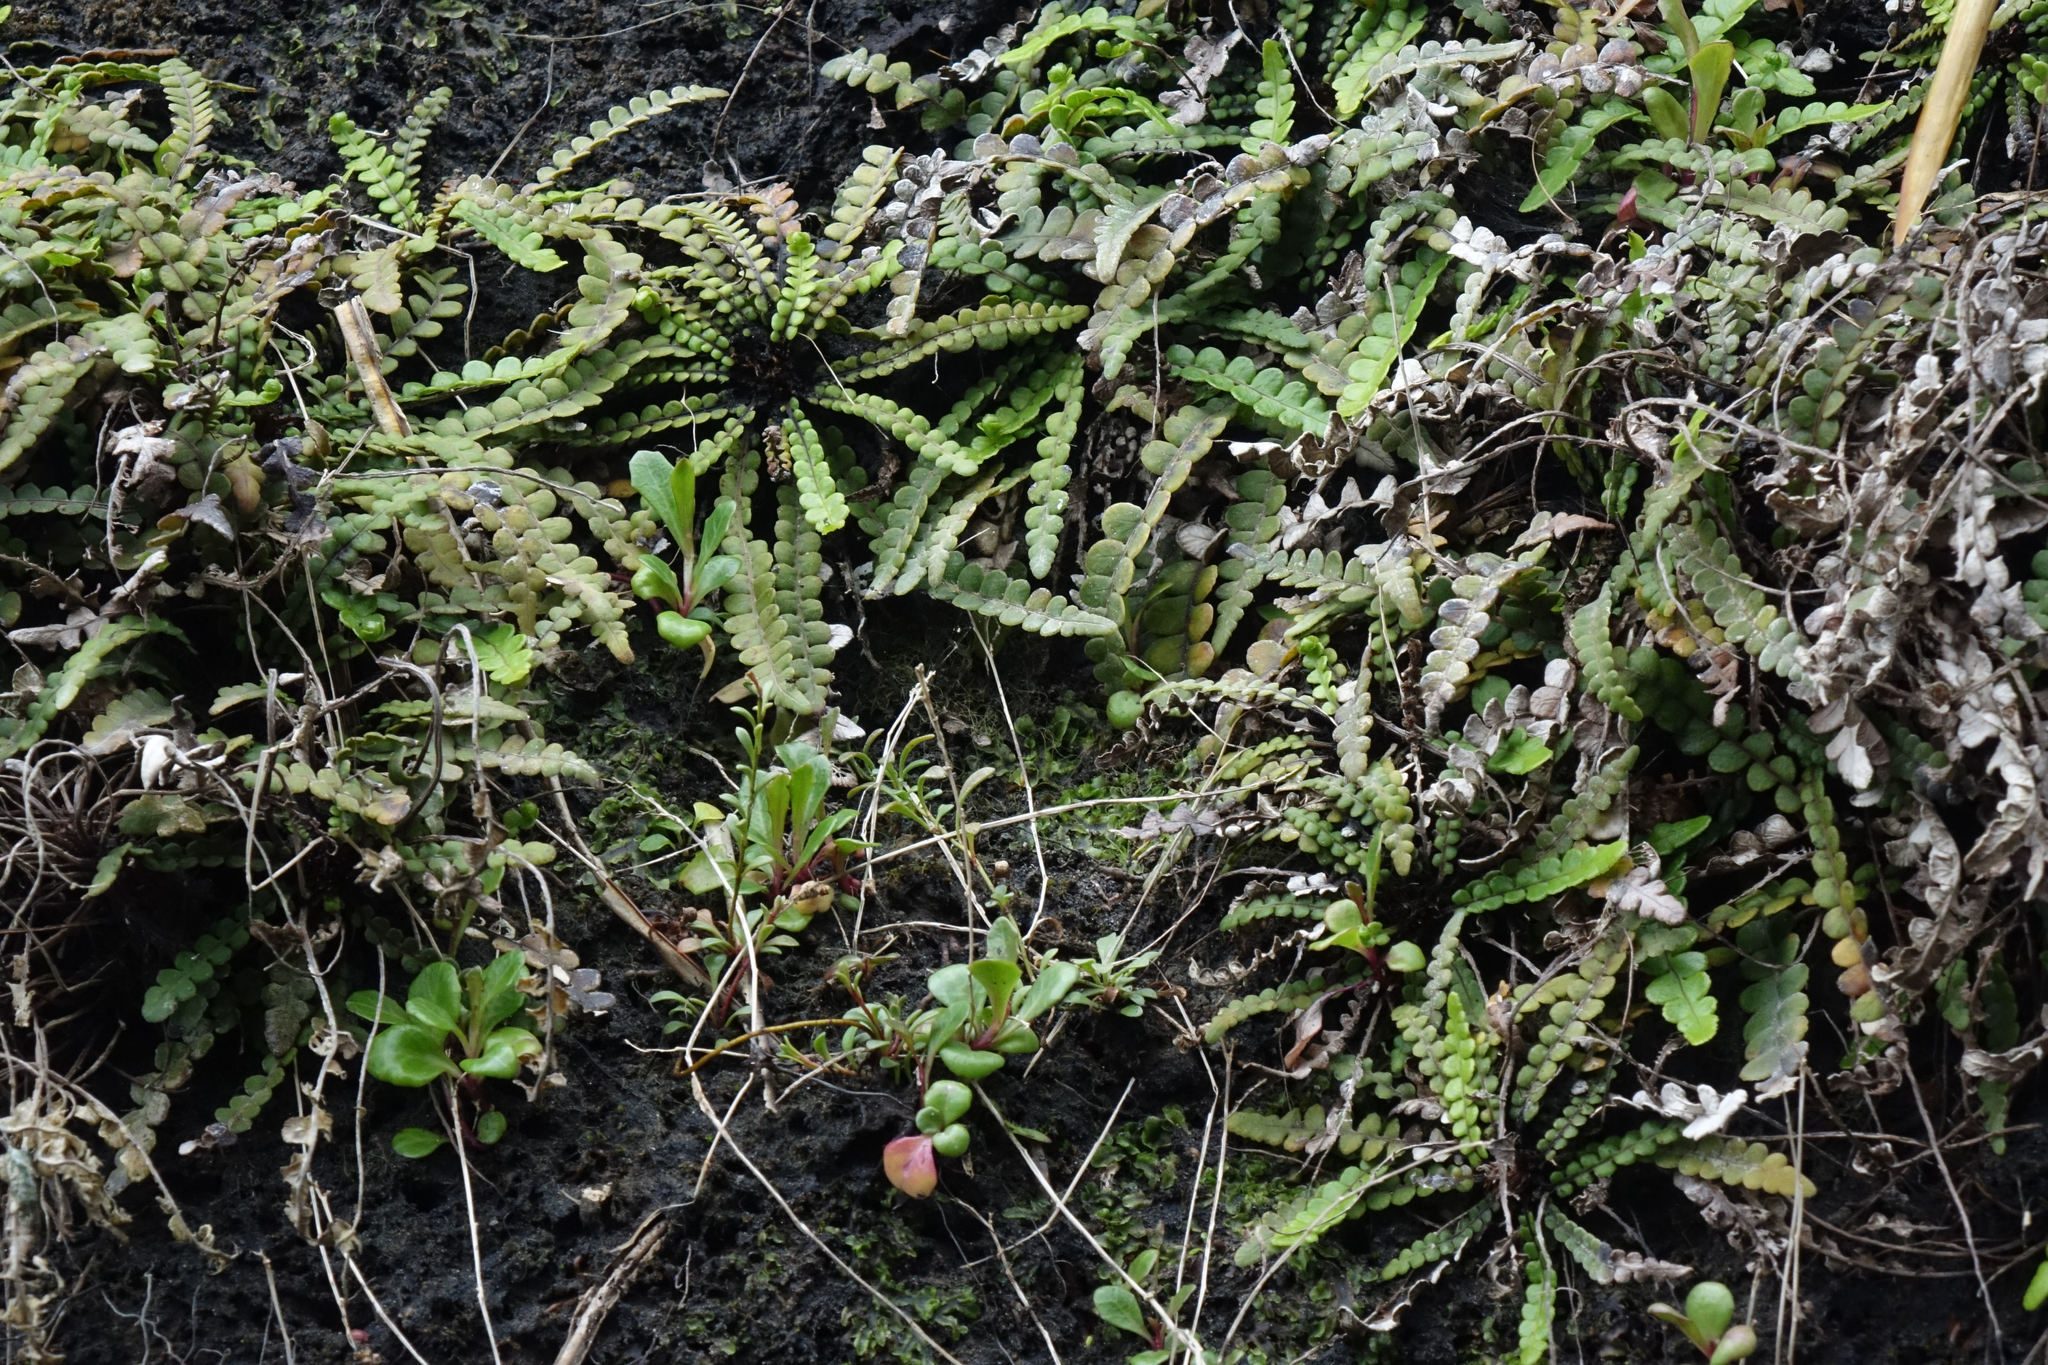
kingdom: Plantae
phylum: Tracheophyta
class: Polypodiopsida
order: Polypodiales
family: Blechnaceae
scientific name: Blechnaceae
